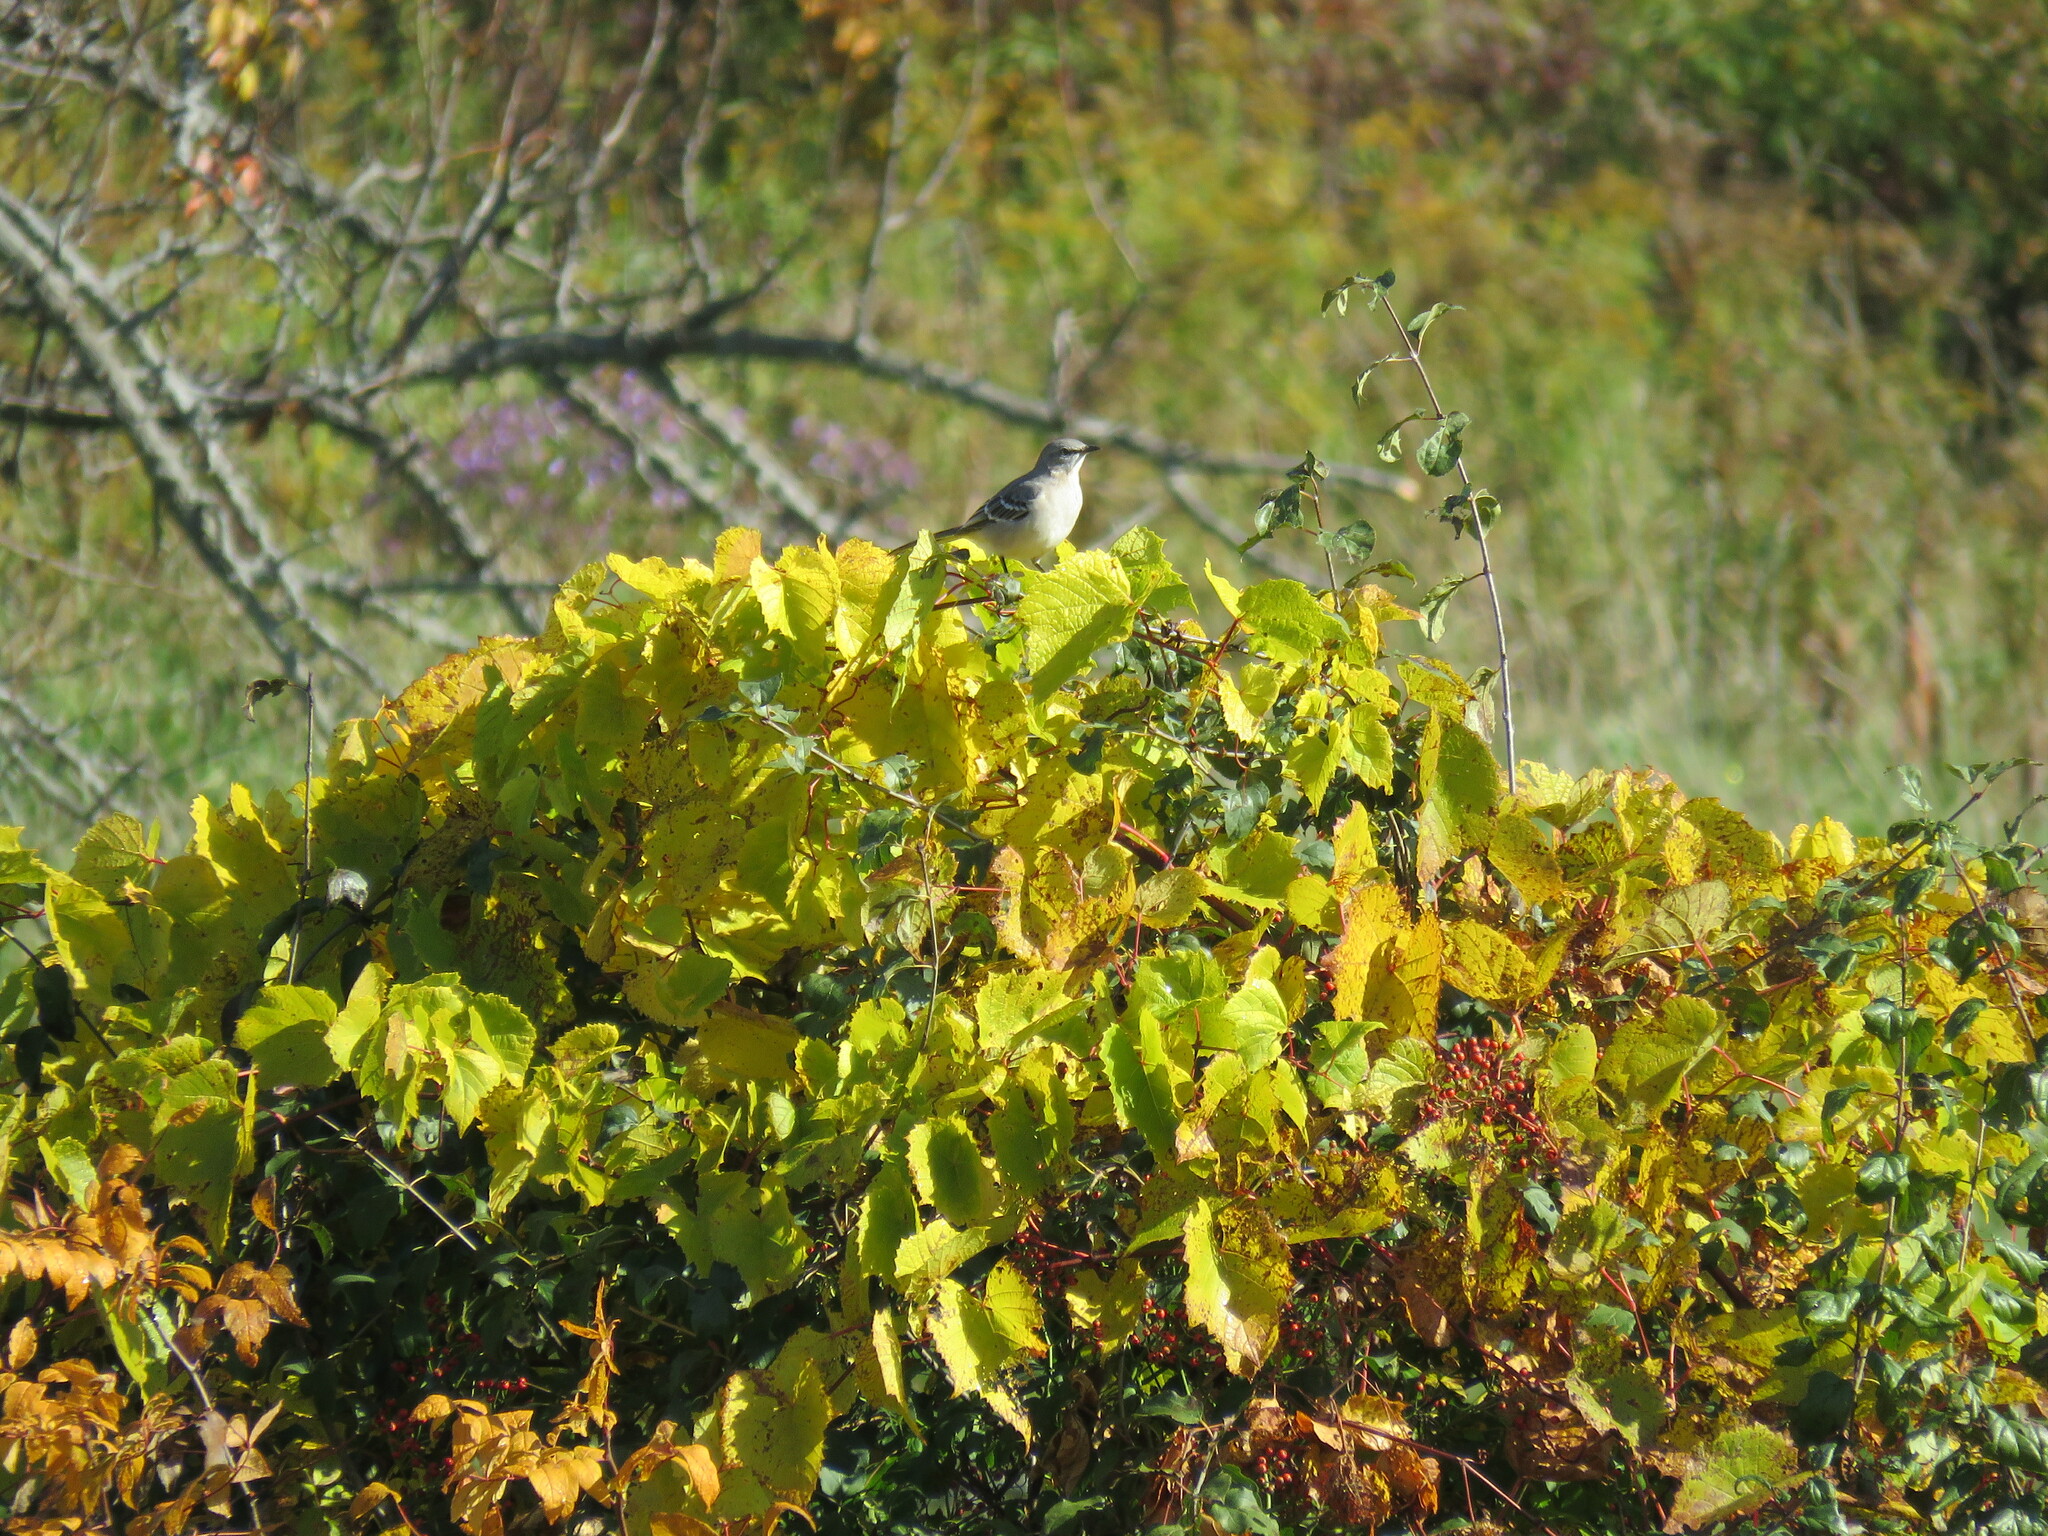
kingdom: Animalia
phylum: Chordata
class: Aves
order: Passeriformes
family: Mimidae
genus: Mimus
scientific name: Mimus polyglottos
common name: Northern mockingbird
